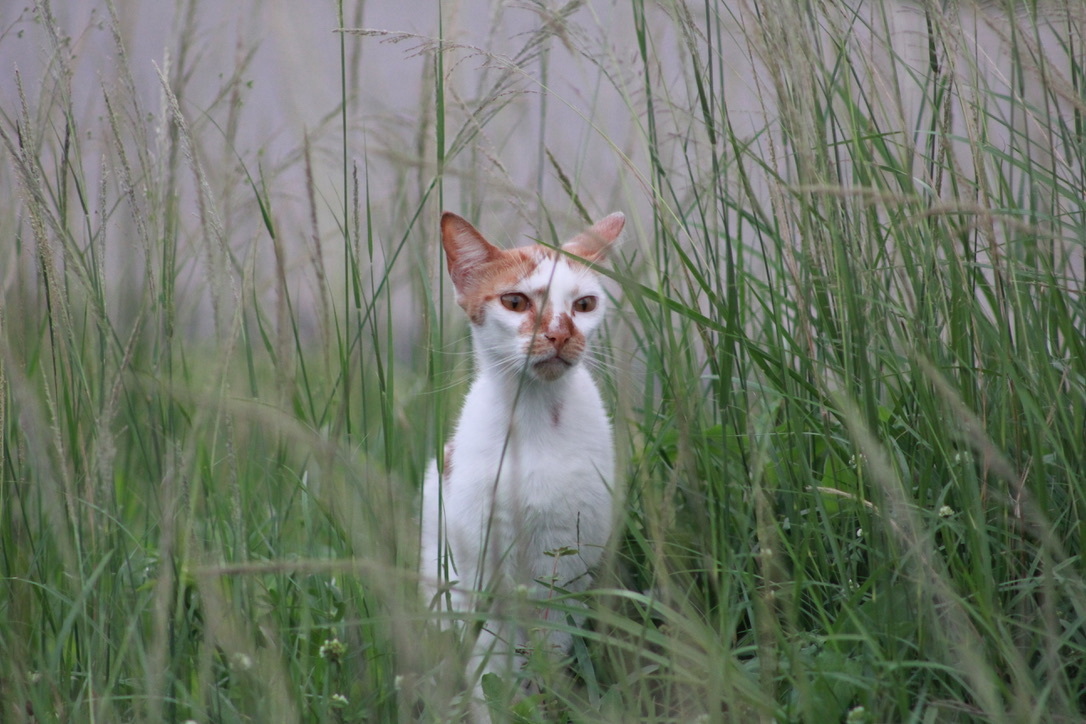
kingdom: Animalia
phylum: Chordata
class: Mammalia
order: Carnivora
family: Felidae
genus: Felis
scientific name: Felis catus
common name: Domestic cat
